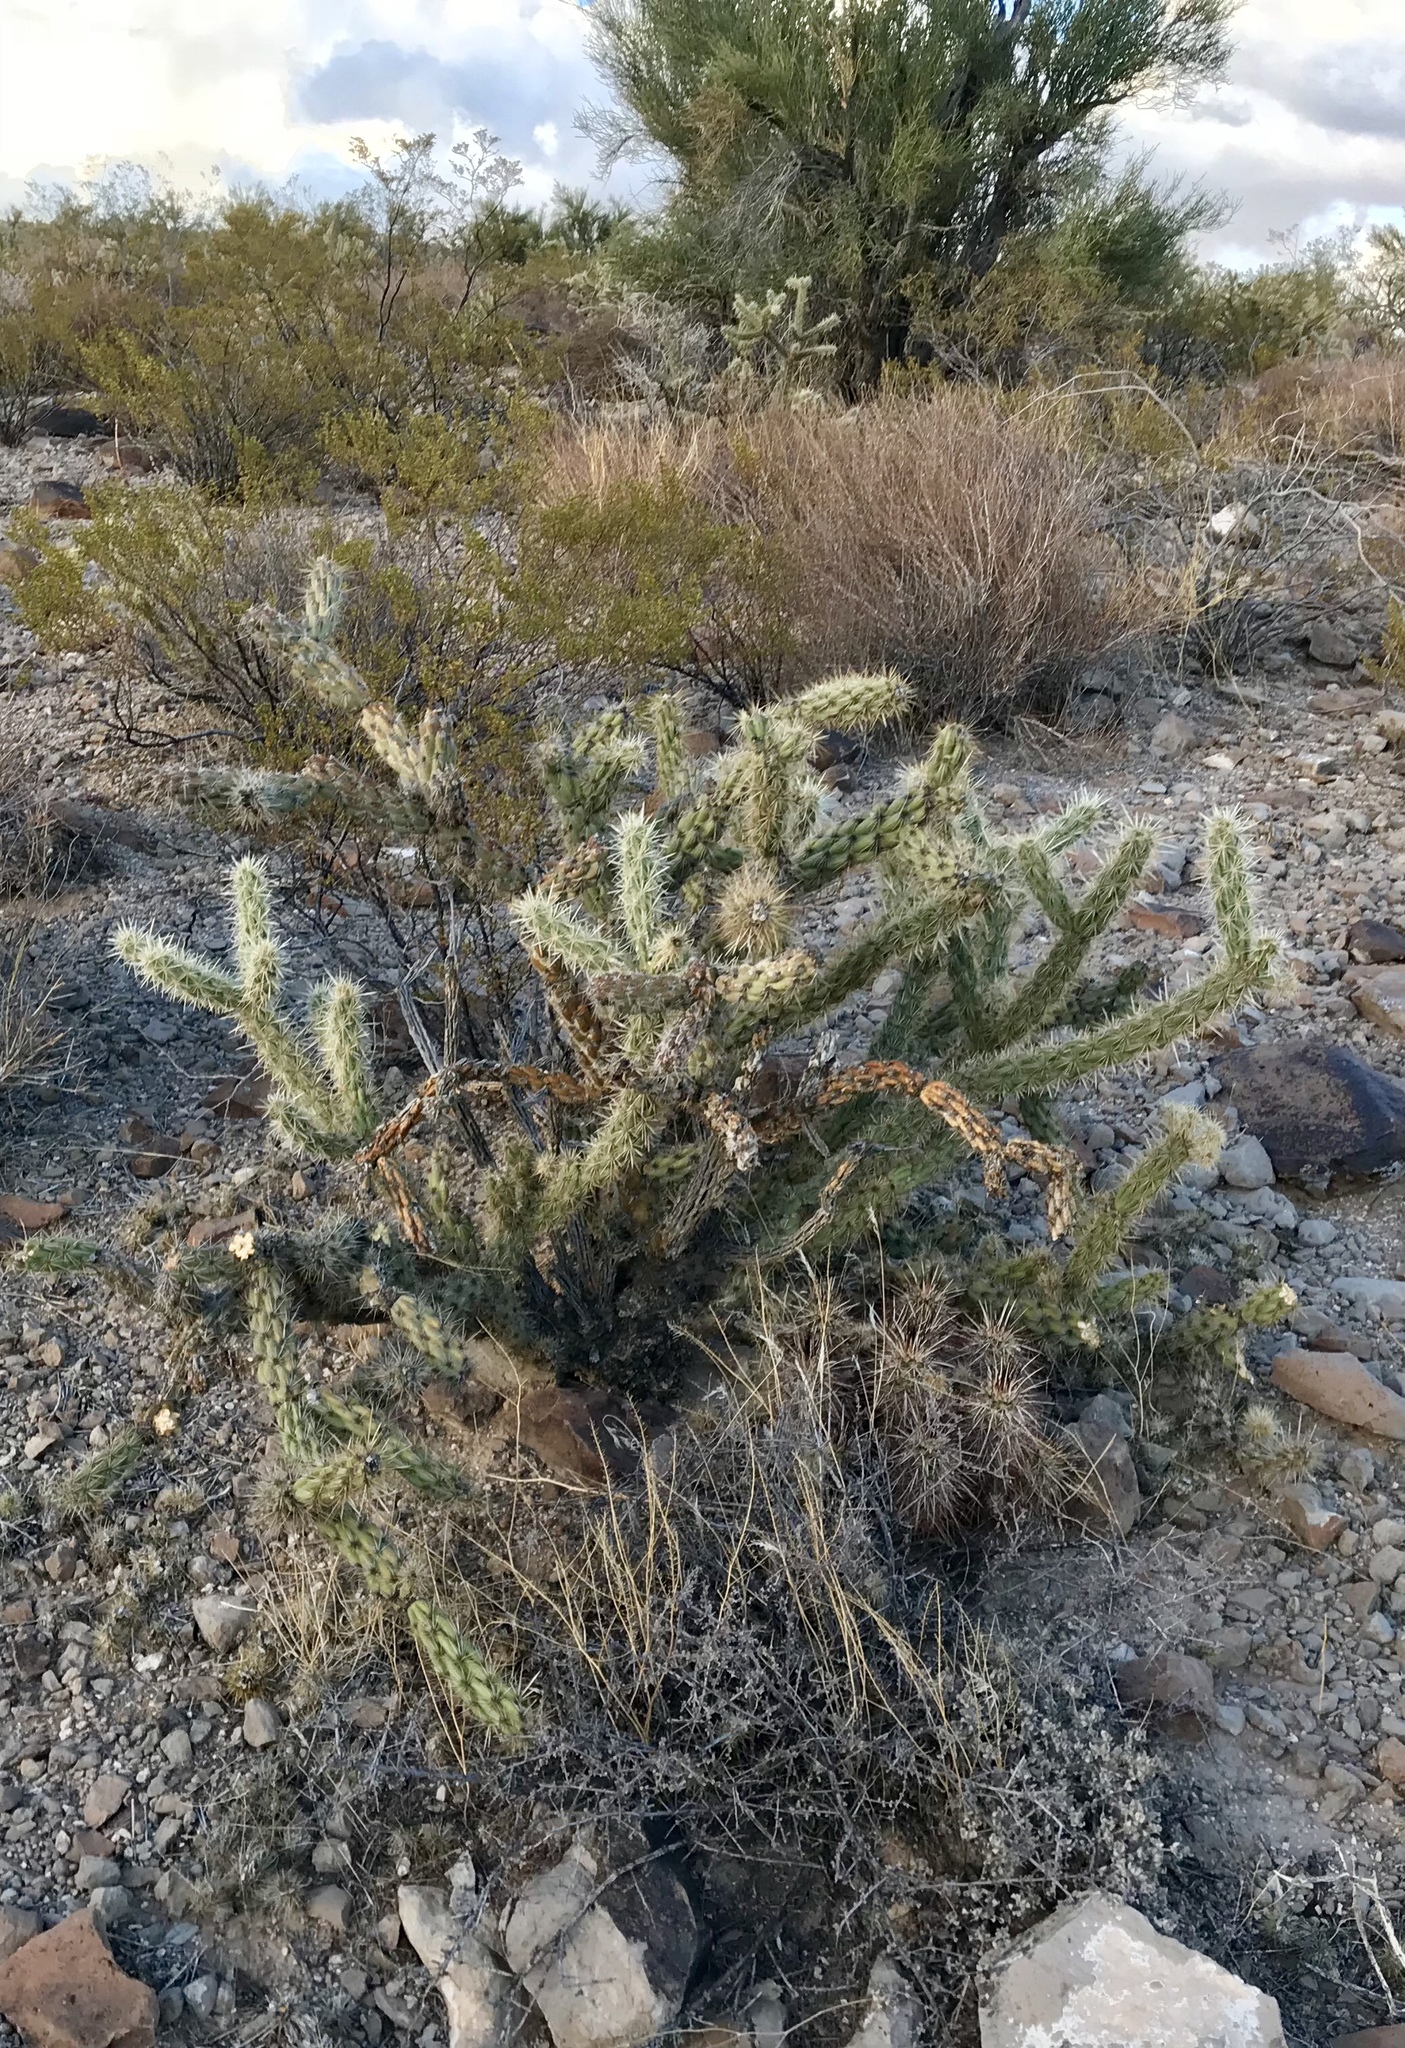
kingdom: Plantae
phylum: Tracheophyta
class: Magnoliopsida
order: Caryophyllales
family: Cactaceae
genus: Cylindropuntia
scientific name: Cylindropuntia acanthocarpa
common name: Buckhorn cholla
